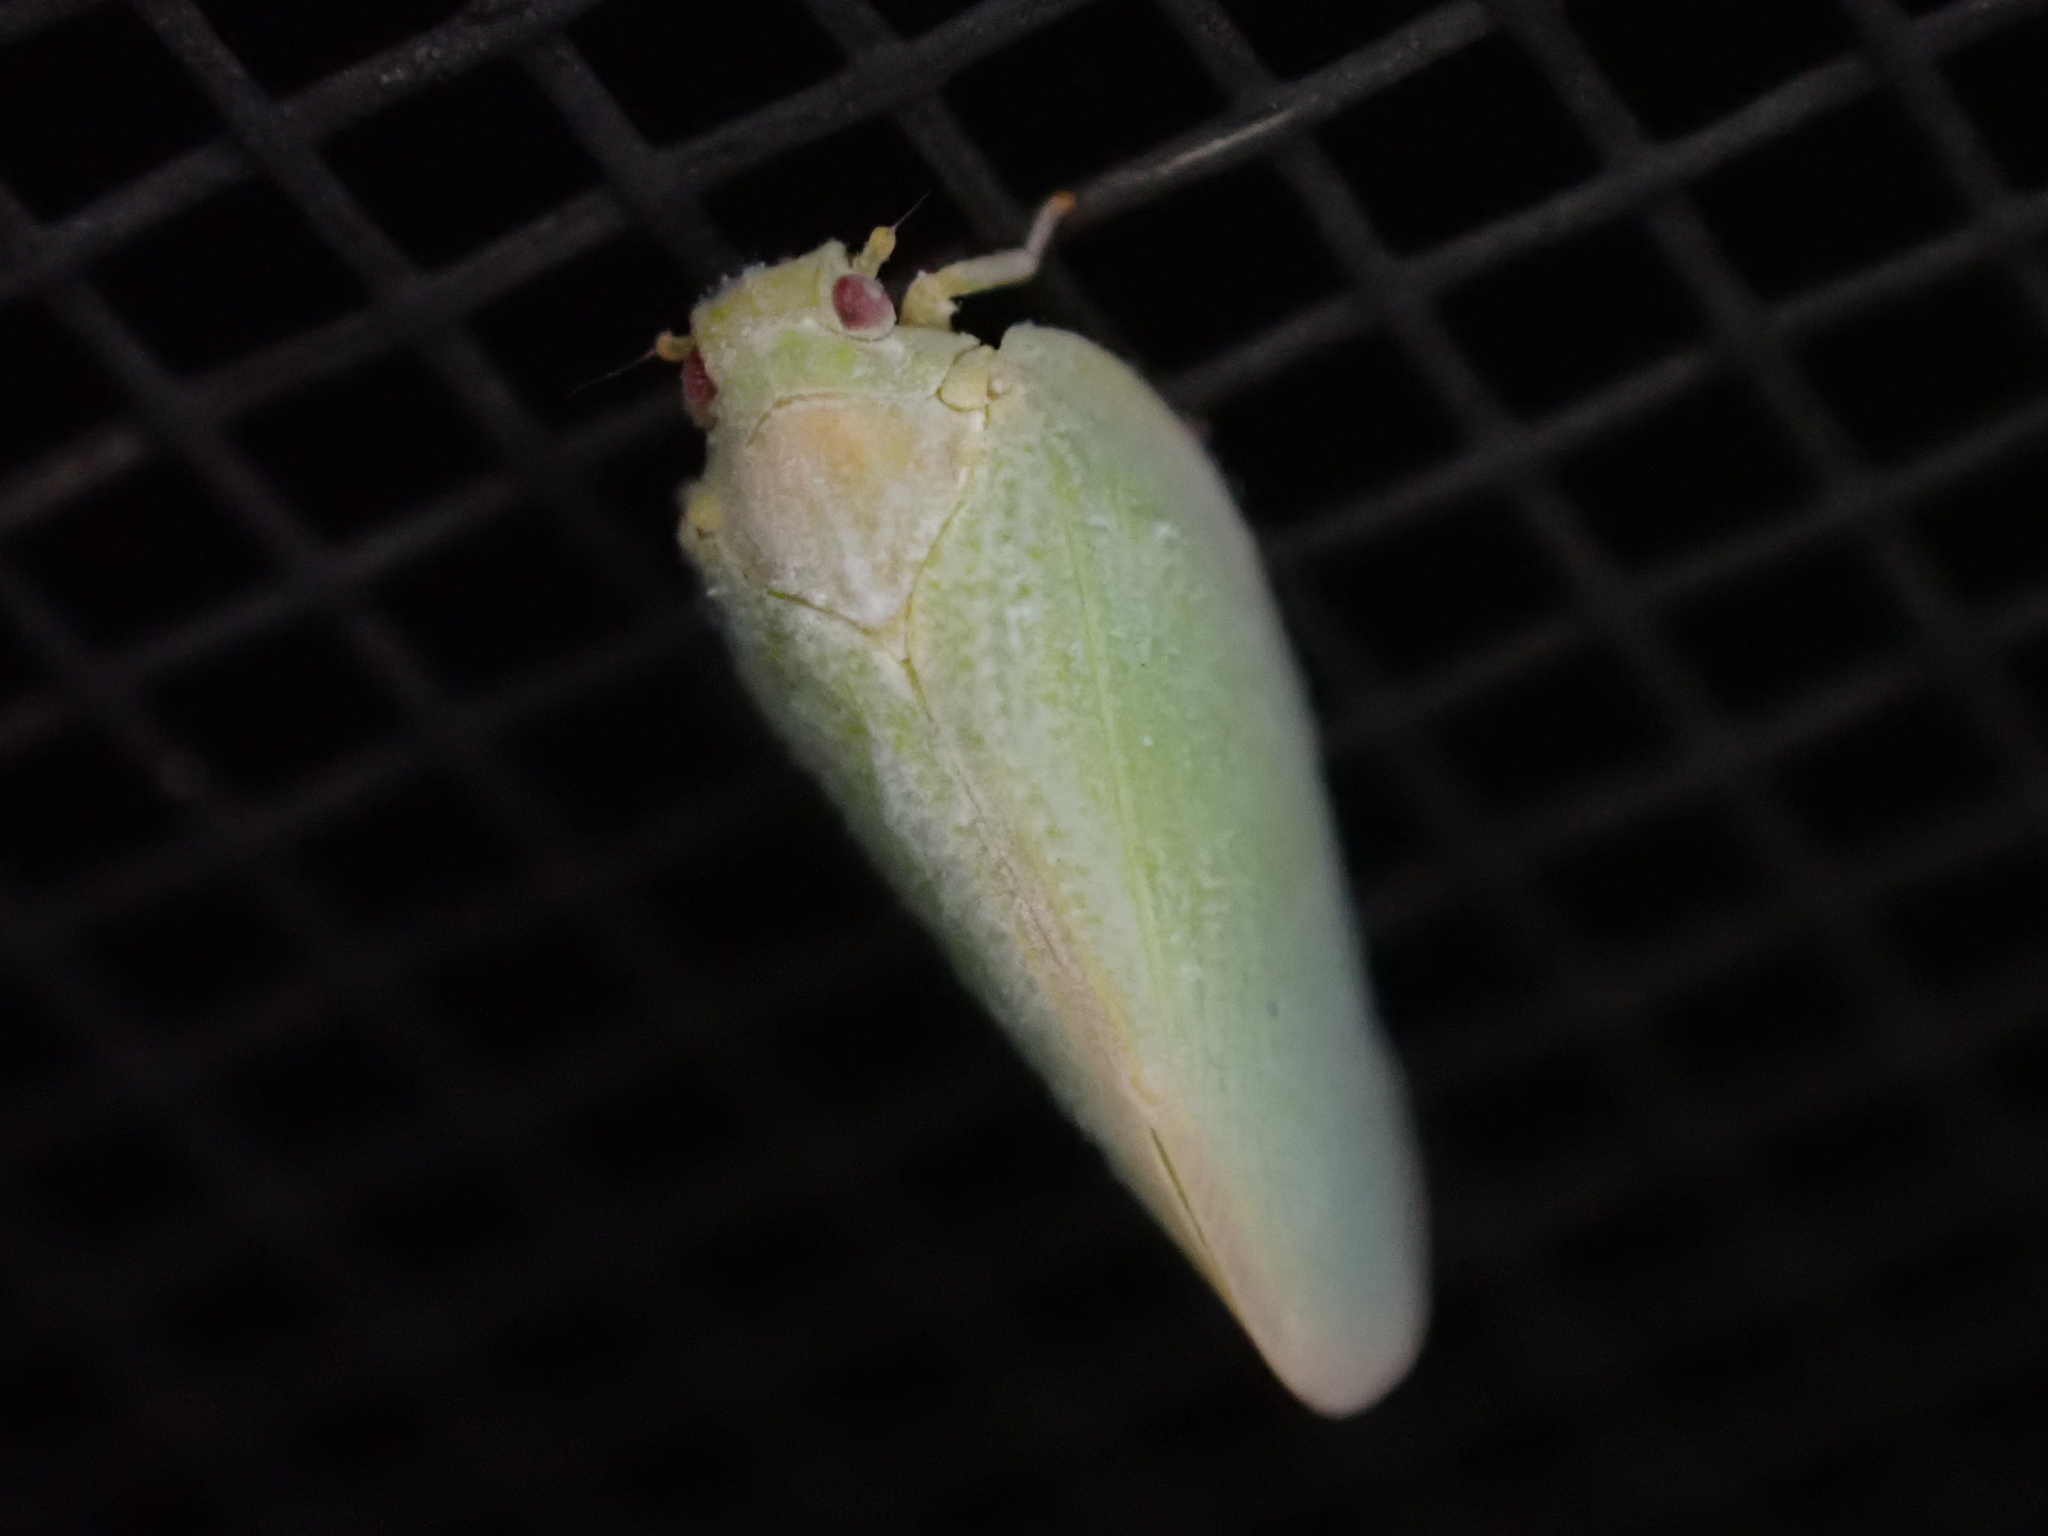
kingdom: Animalia
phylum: Arthropoda
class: Insecta
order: Hemiptera
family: Flatidae
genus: Ormenoides
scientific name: Ormenoides venusta
